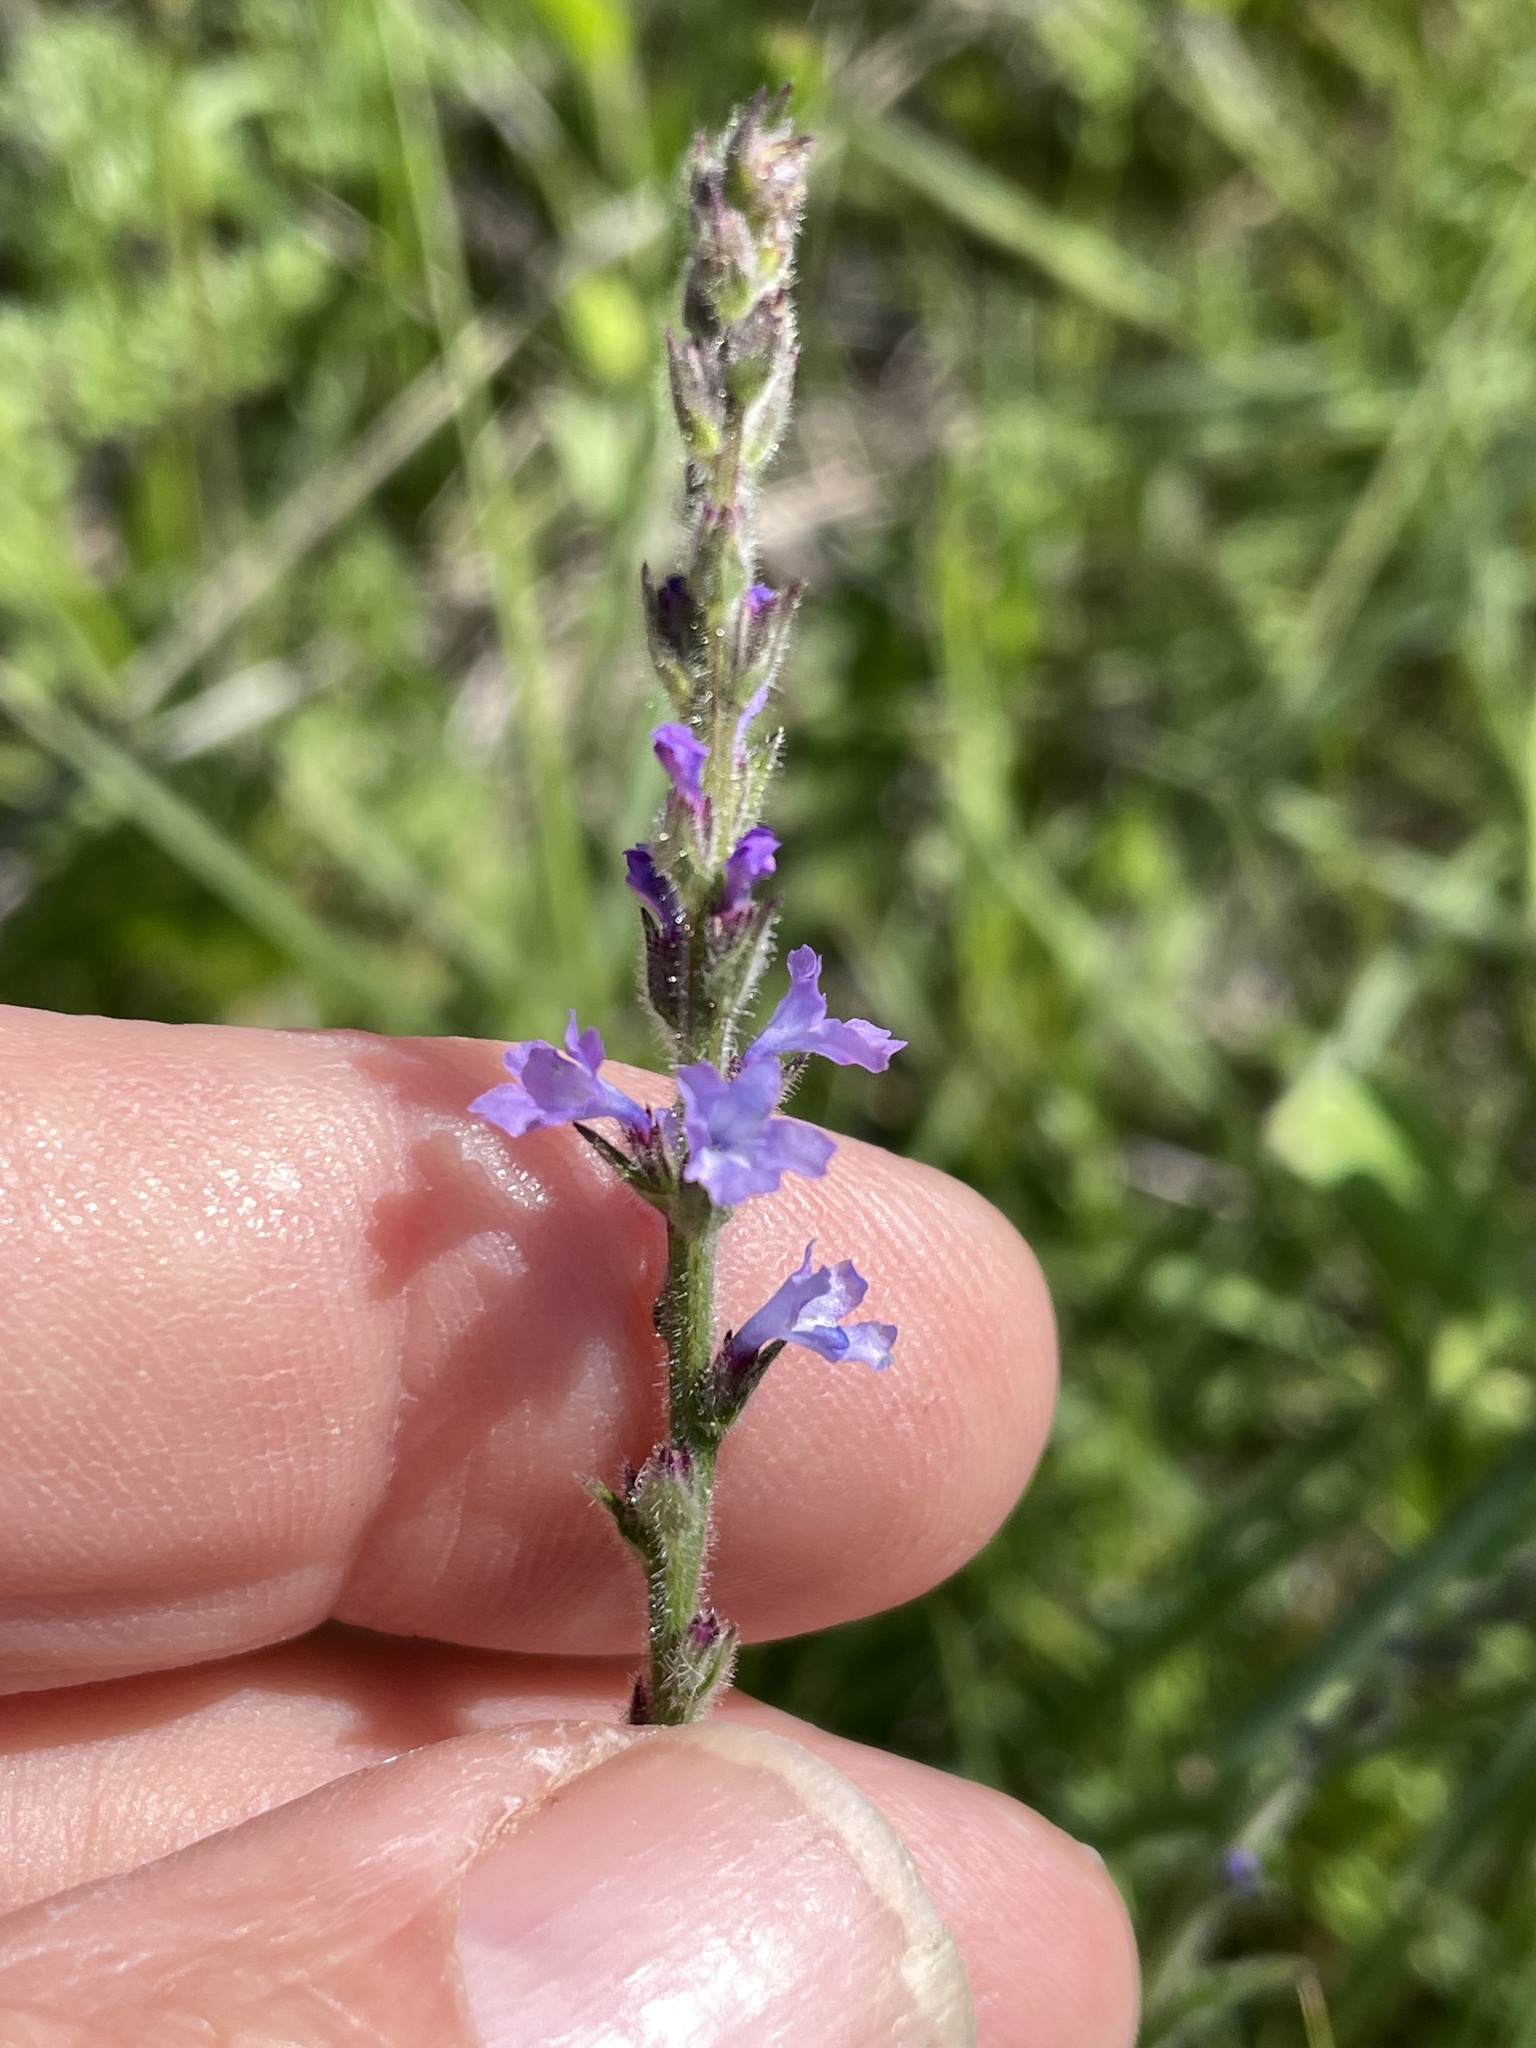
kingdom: Plantae
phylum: Tracheophyta
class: Magnoliopsida
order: Lamiales
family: Verbenaceae
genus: Verbena
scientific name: Verbena canescens
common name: Gray vervain
